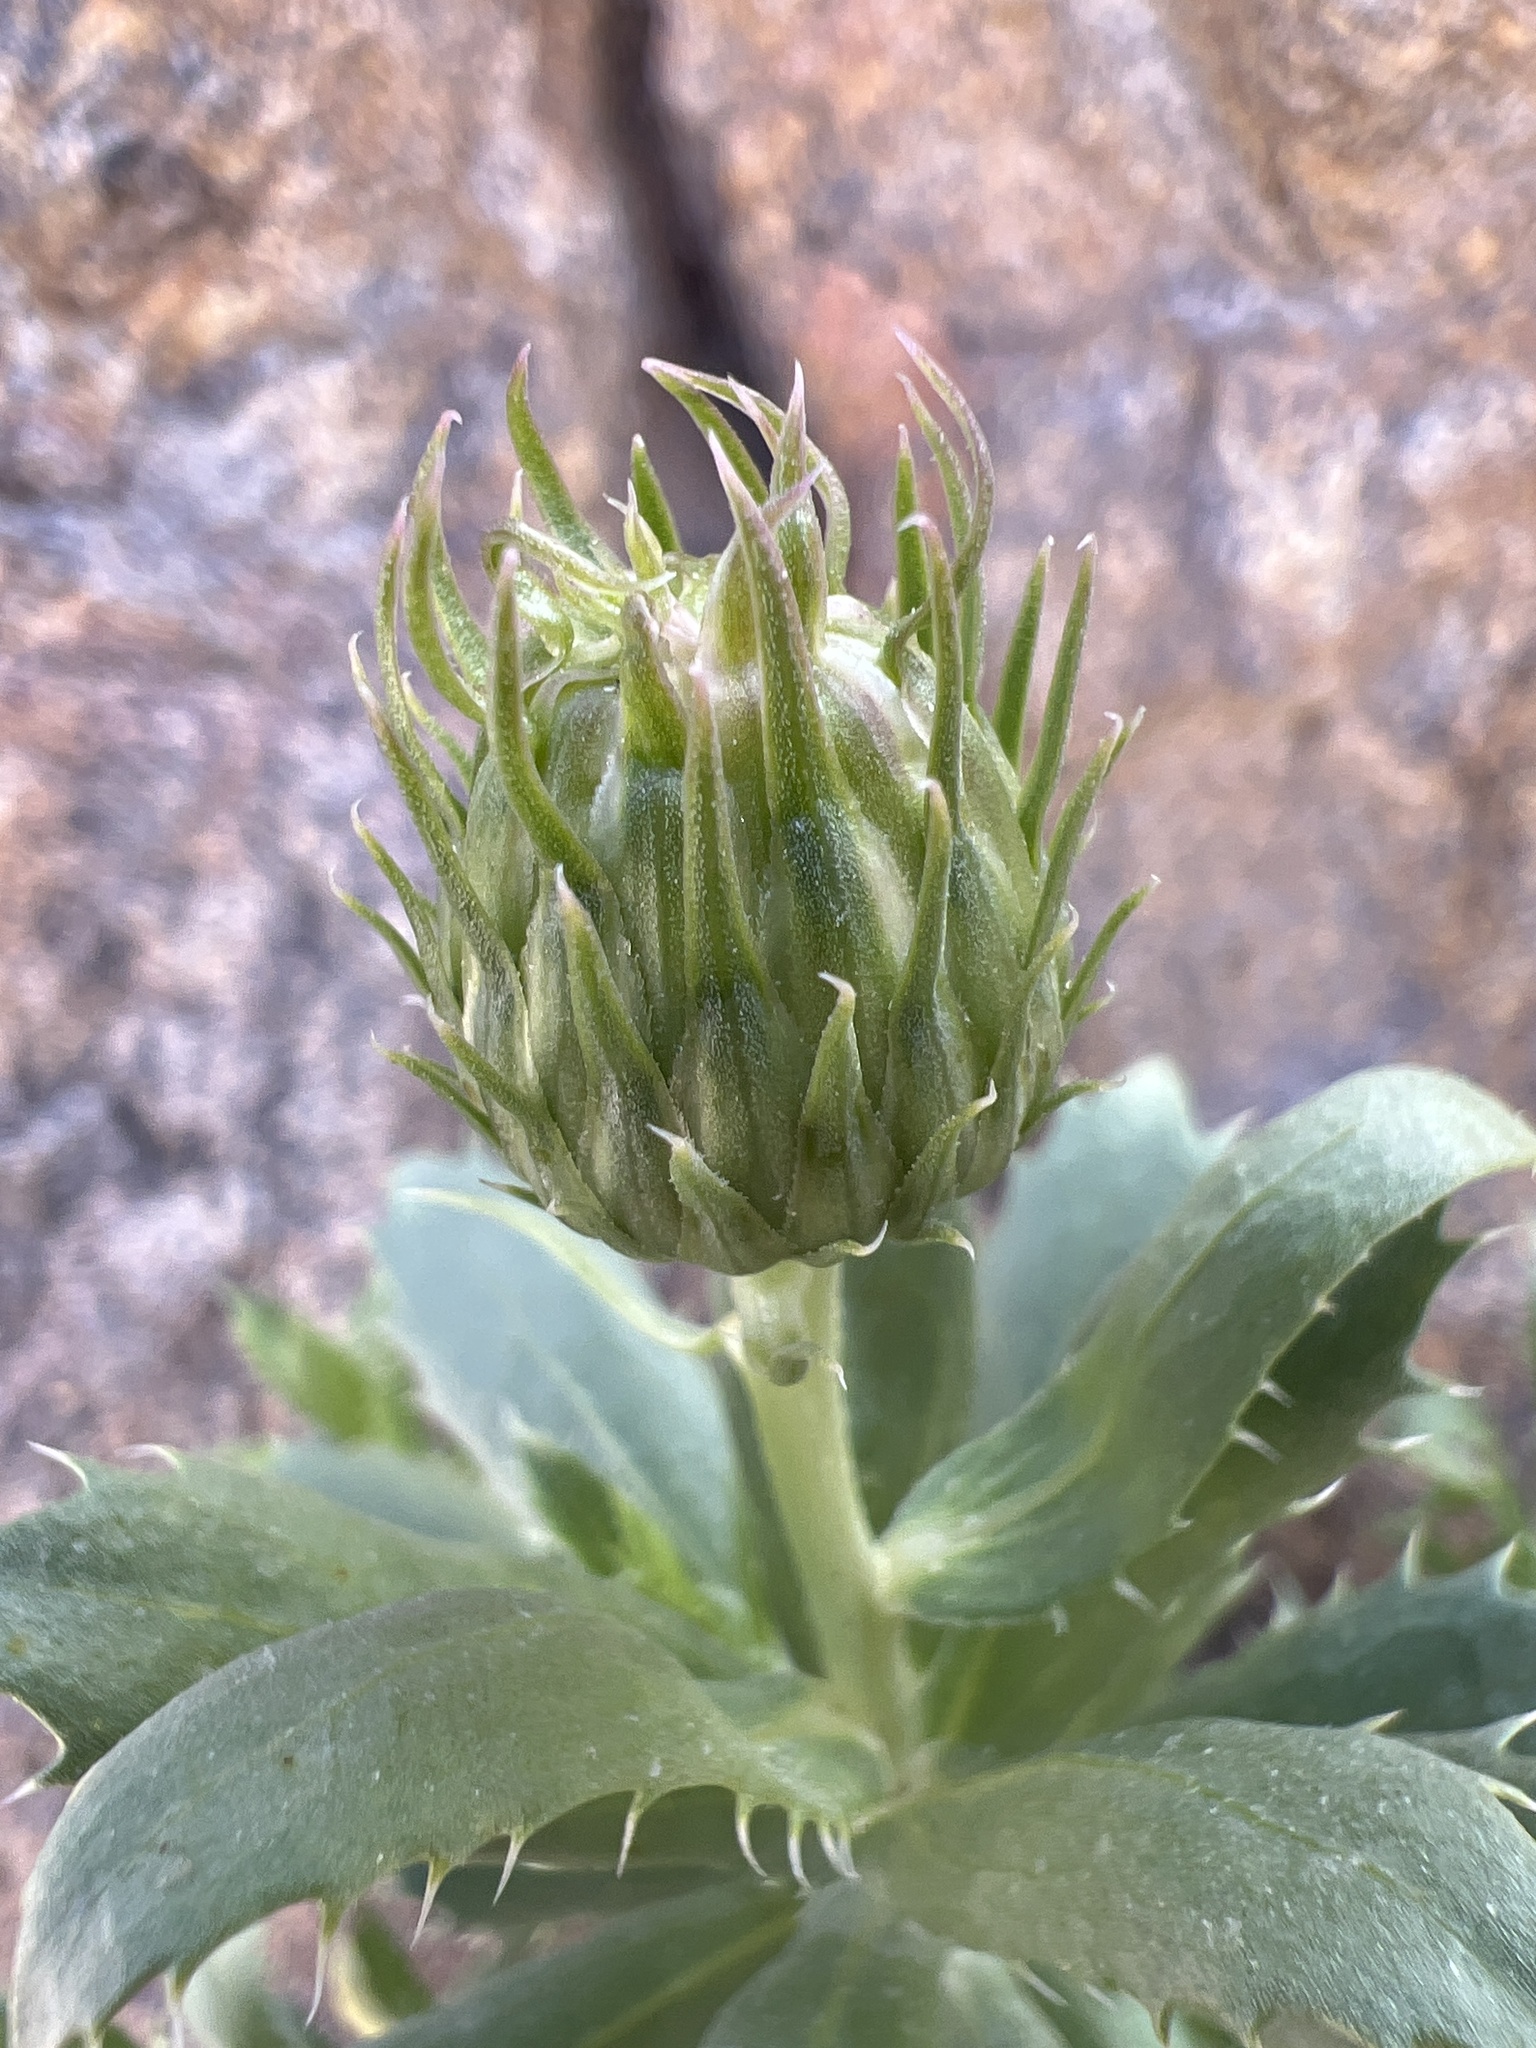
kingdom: Plantae
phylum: Tracheophyta
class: Magnoliopsida
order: Asterales
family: Asteraceae
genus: Xylorhiza
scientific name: Xylorhiza orcuttii
